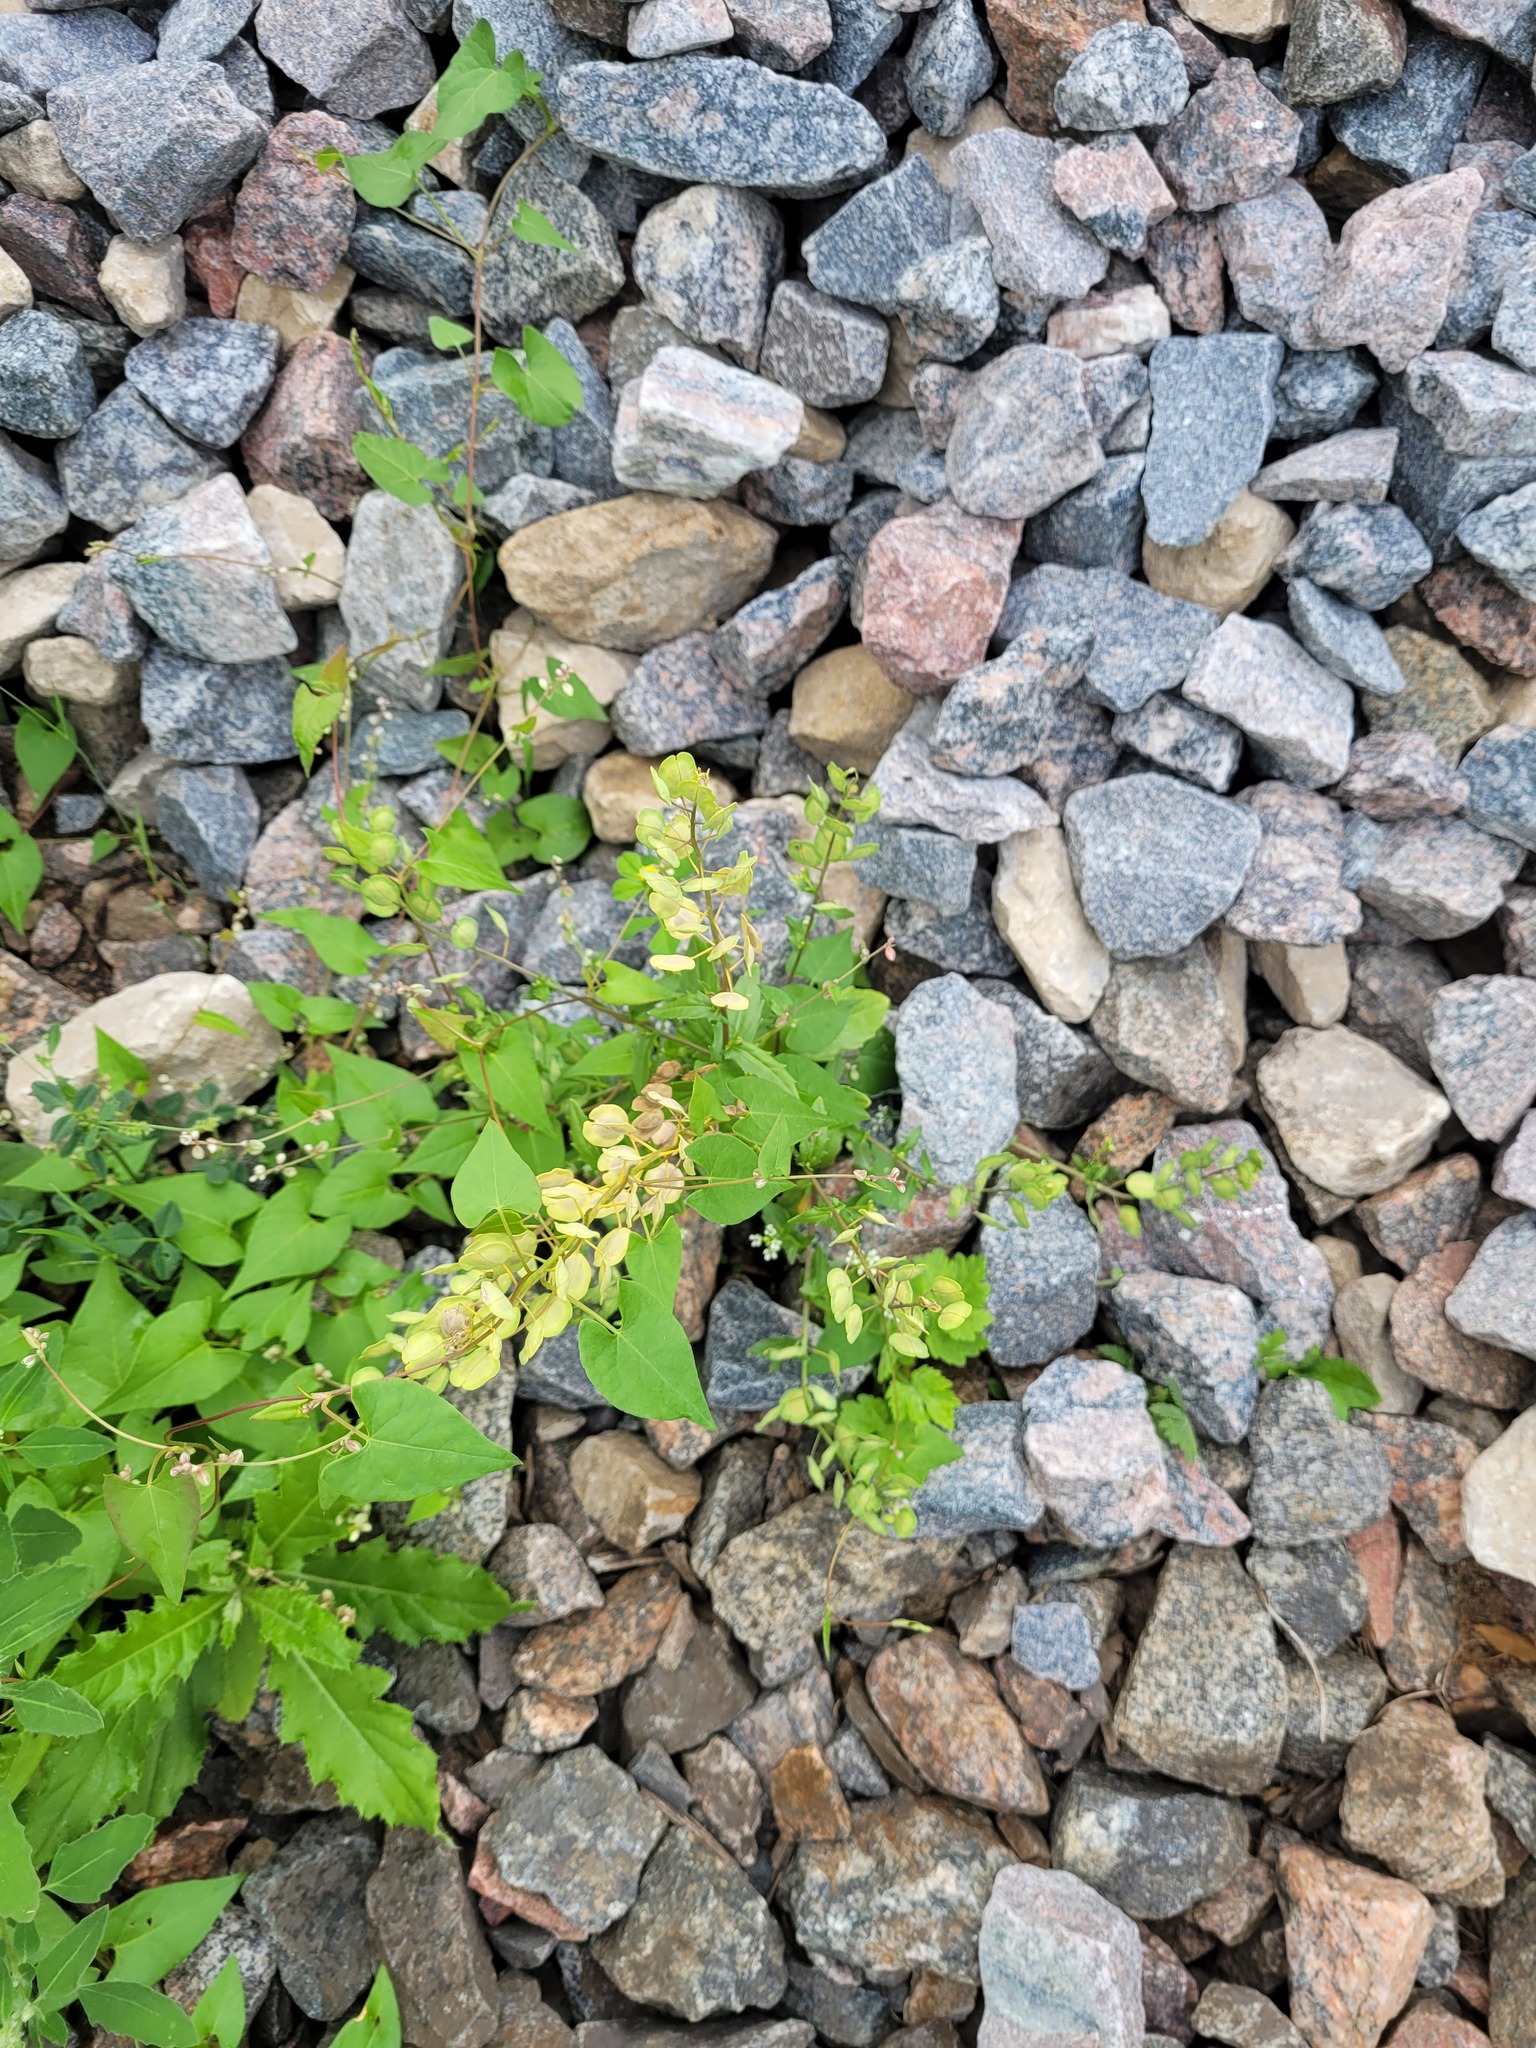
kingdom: Plantae
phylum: Tracheophyta
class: Magnoliopsida
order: Brassicales
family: Brassicaceae
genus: Thlaspi
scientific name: Thlaspi arvense
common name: Field pennycress
